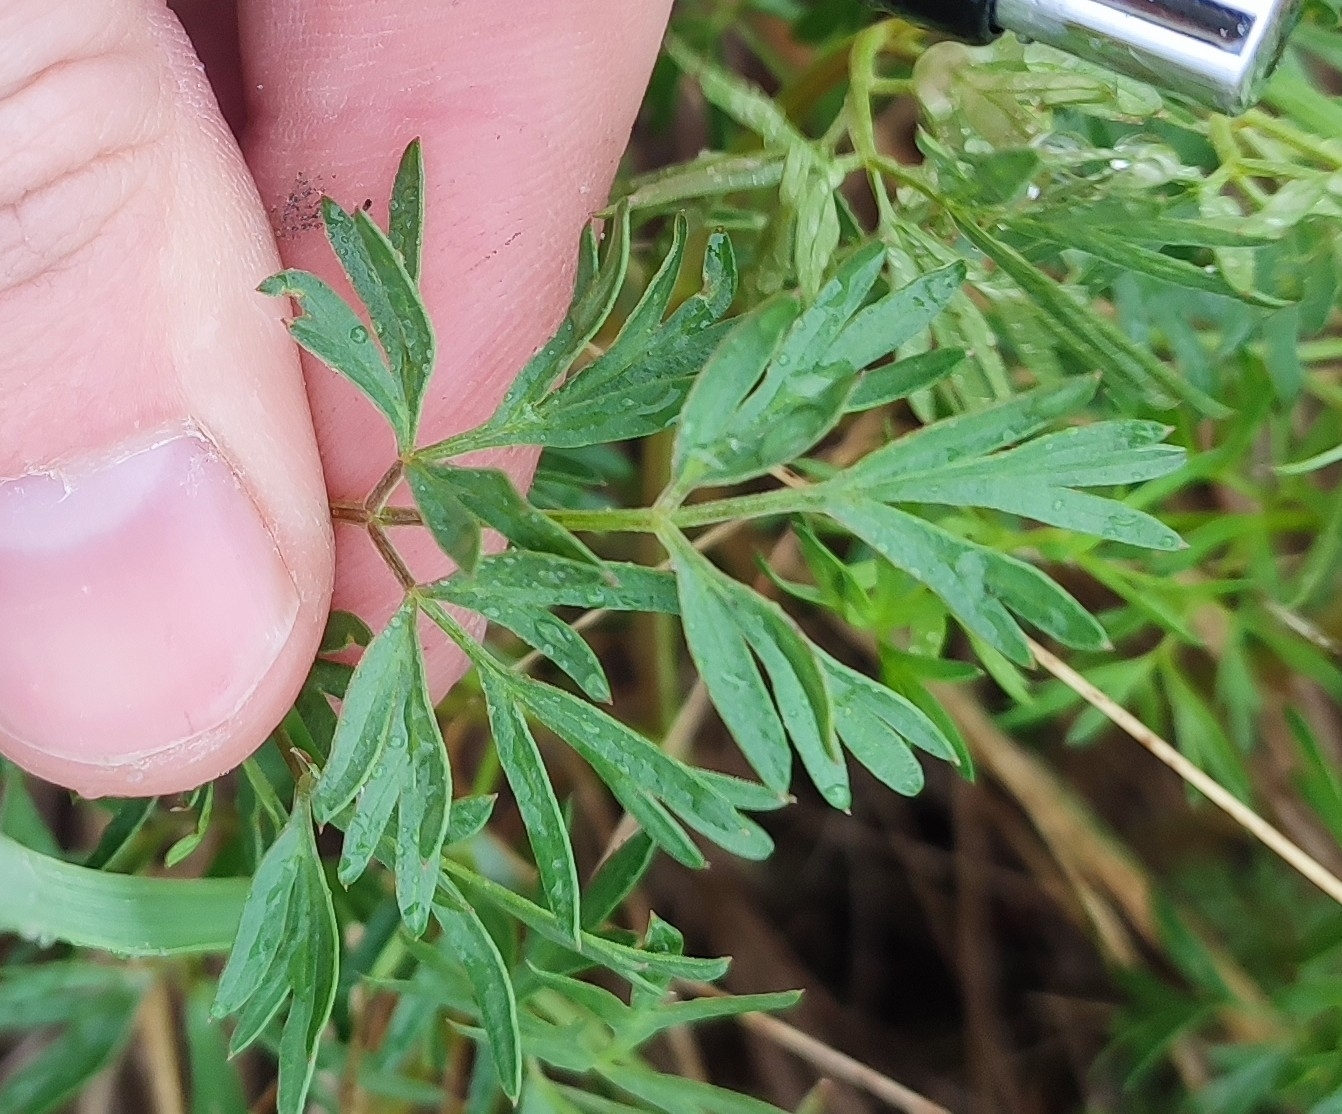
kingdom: Plantae
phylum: Tracheophyta
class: Magnoliopsida
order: Apiales
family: Apiaceae
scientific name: Apiaceae
